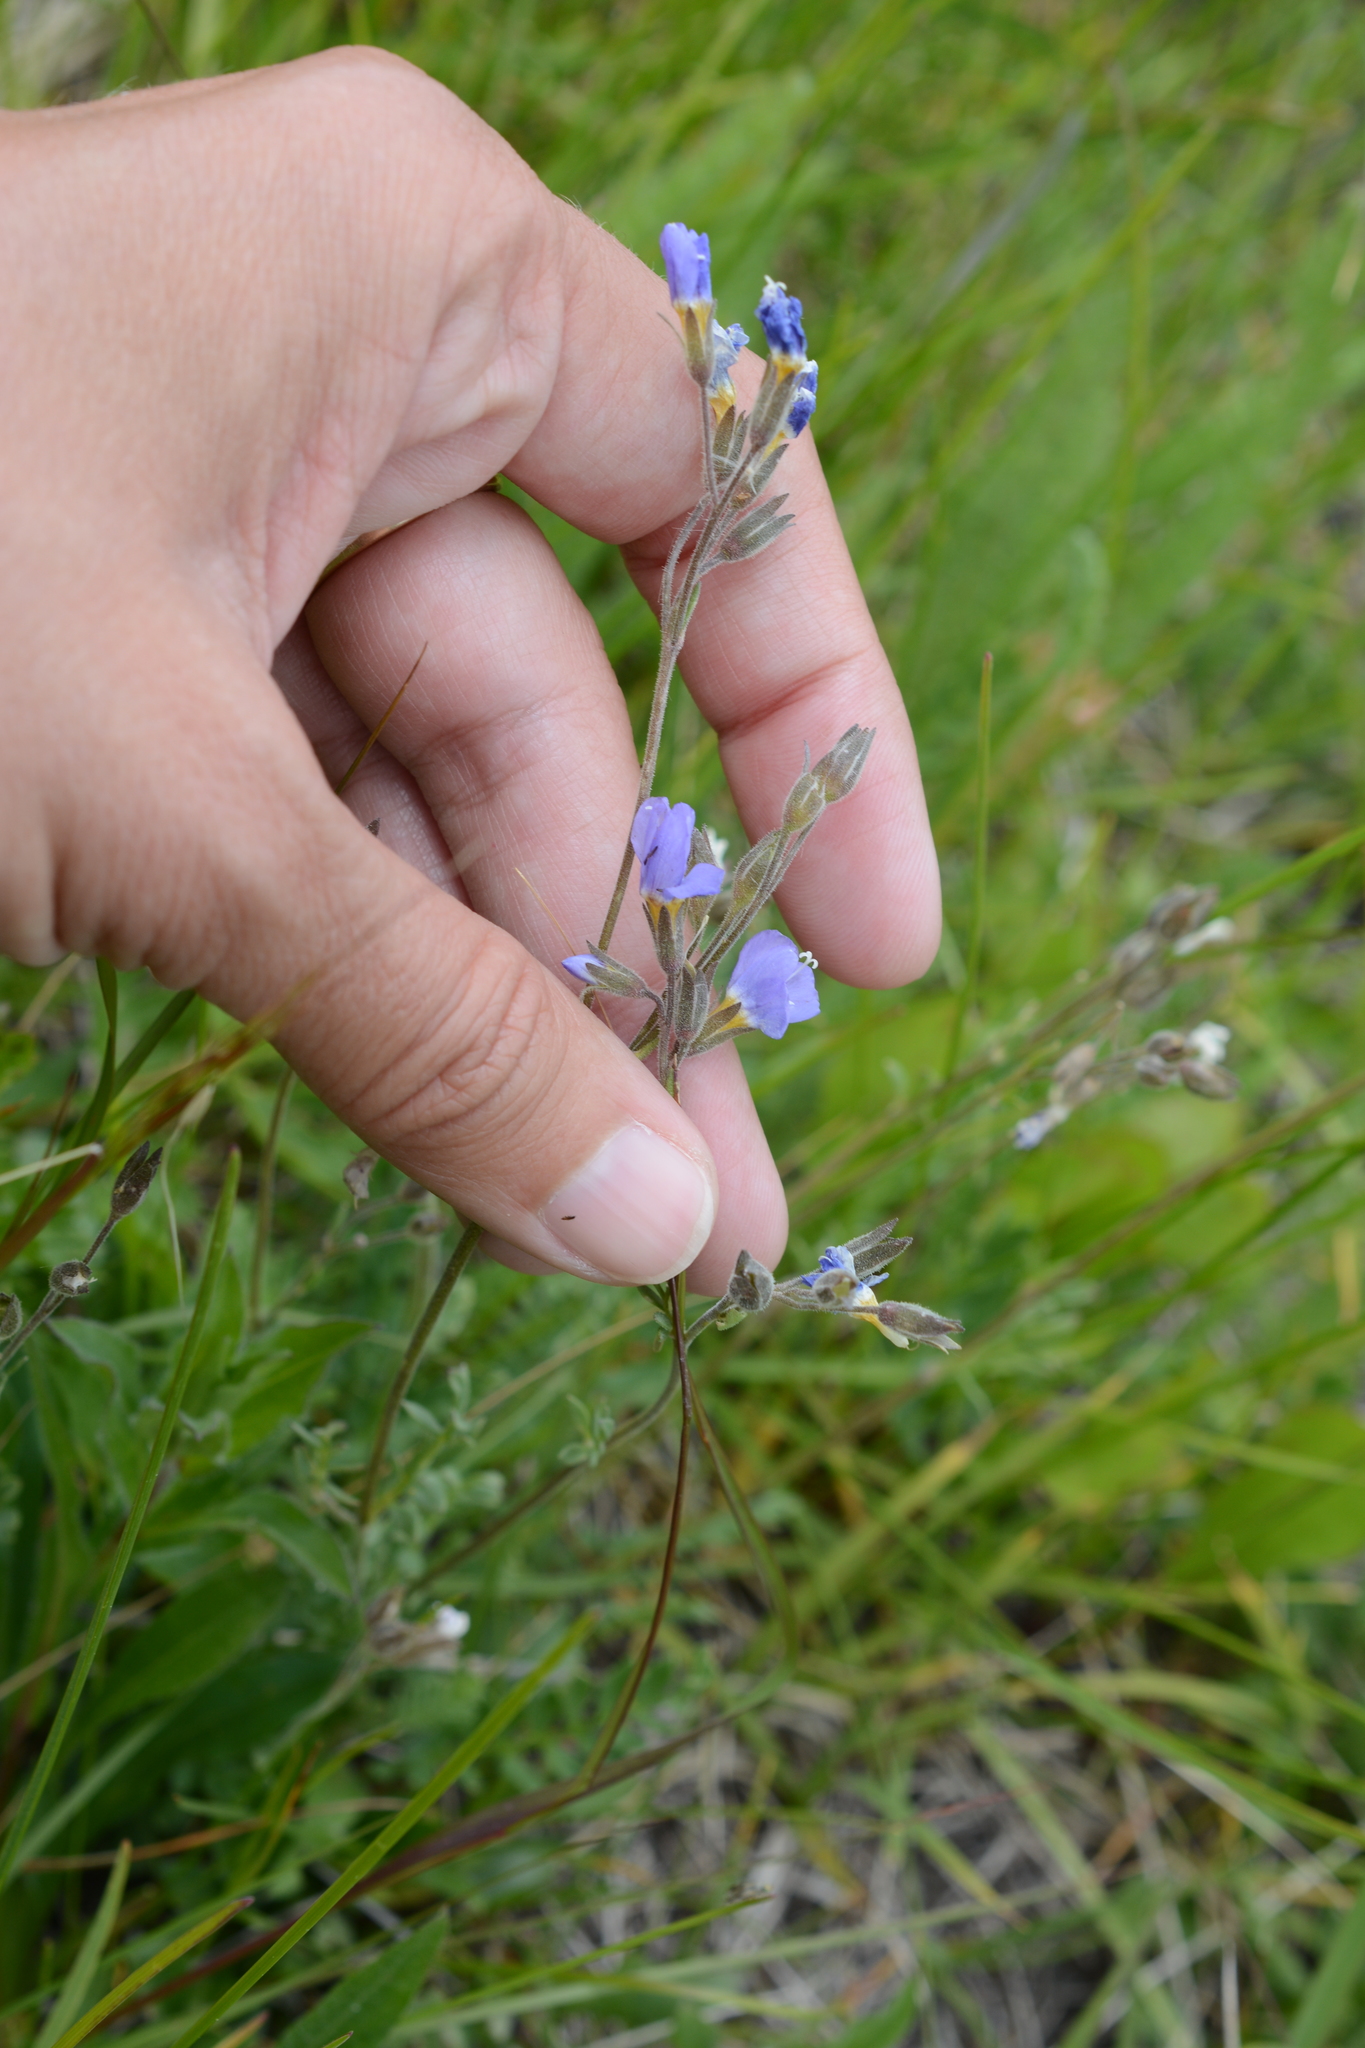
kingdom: Plantae
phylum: Tracheophyta
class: Magnoliopsida
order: Ericales
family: Polemoniaceae
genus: Polemonium
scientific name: Polemonium pulcherrimum
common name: Short jacob's-ladder
